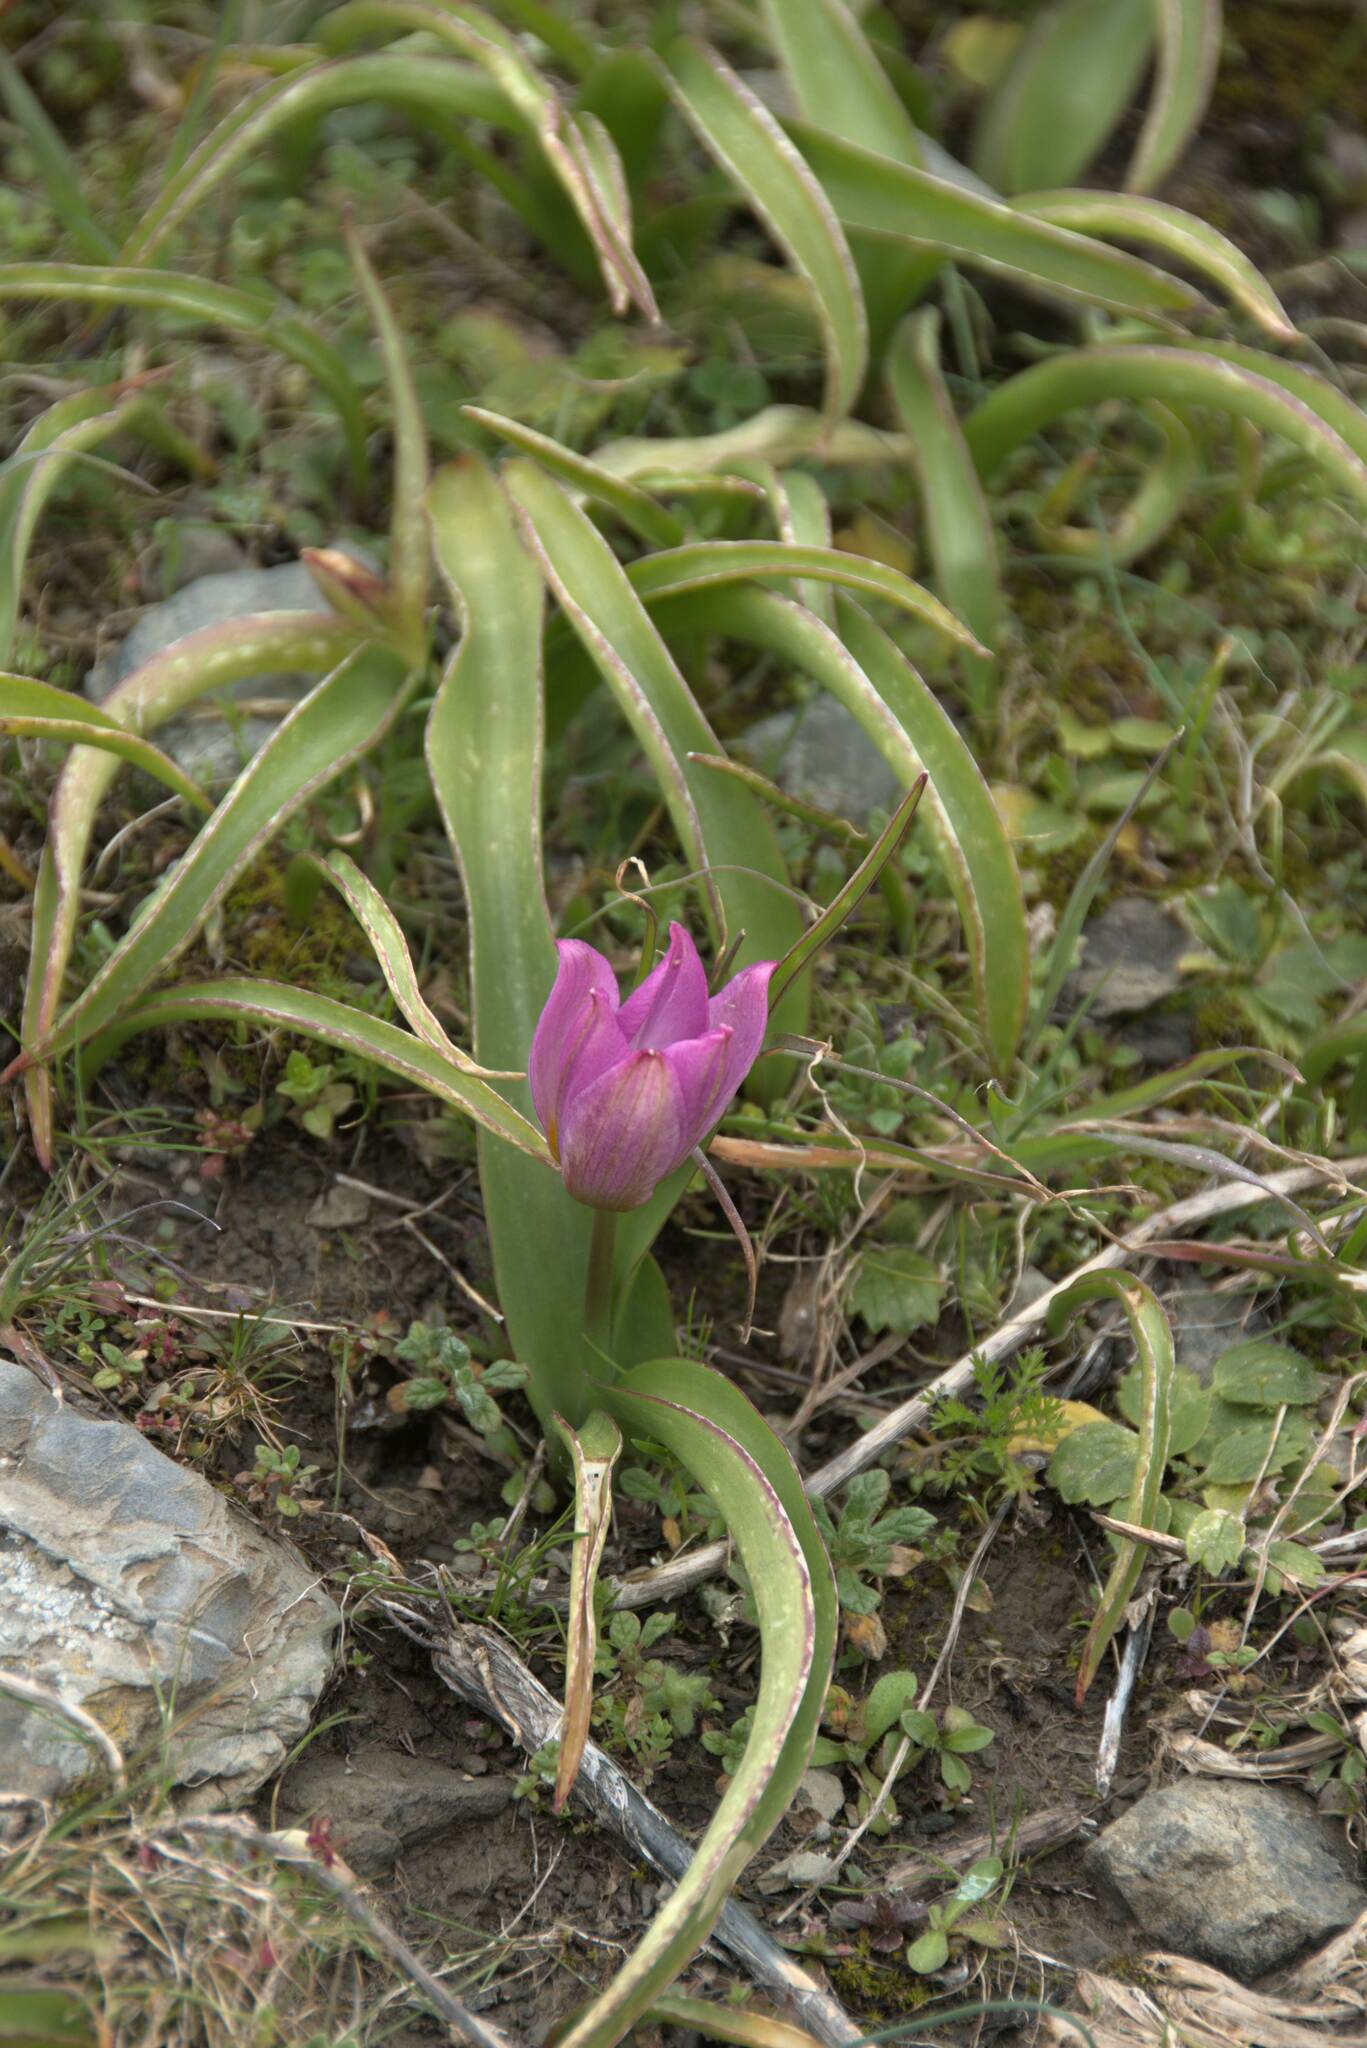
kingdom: Plantae
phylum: Tracheophyta
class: Liliopsida
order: Liliales
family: Liliaceae
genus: Tulipa
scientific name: Tulipa saxatilis
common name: Cretan tulip
